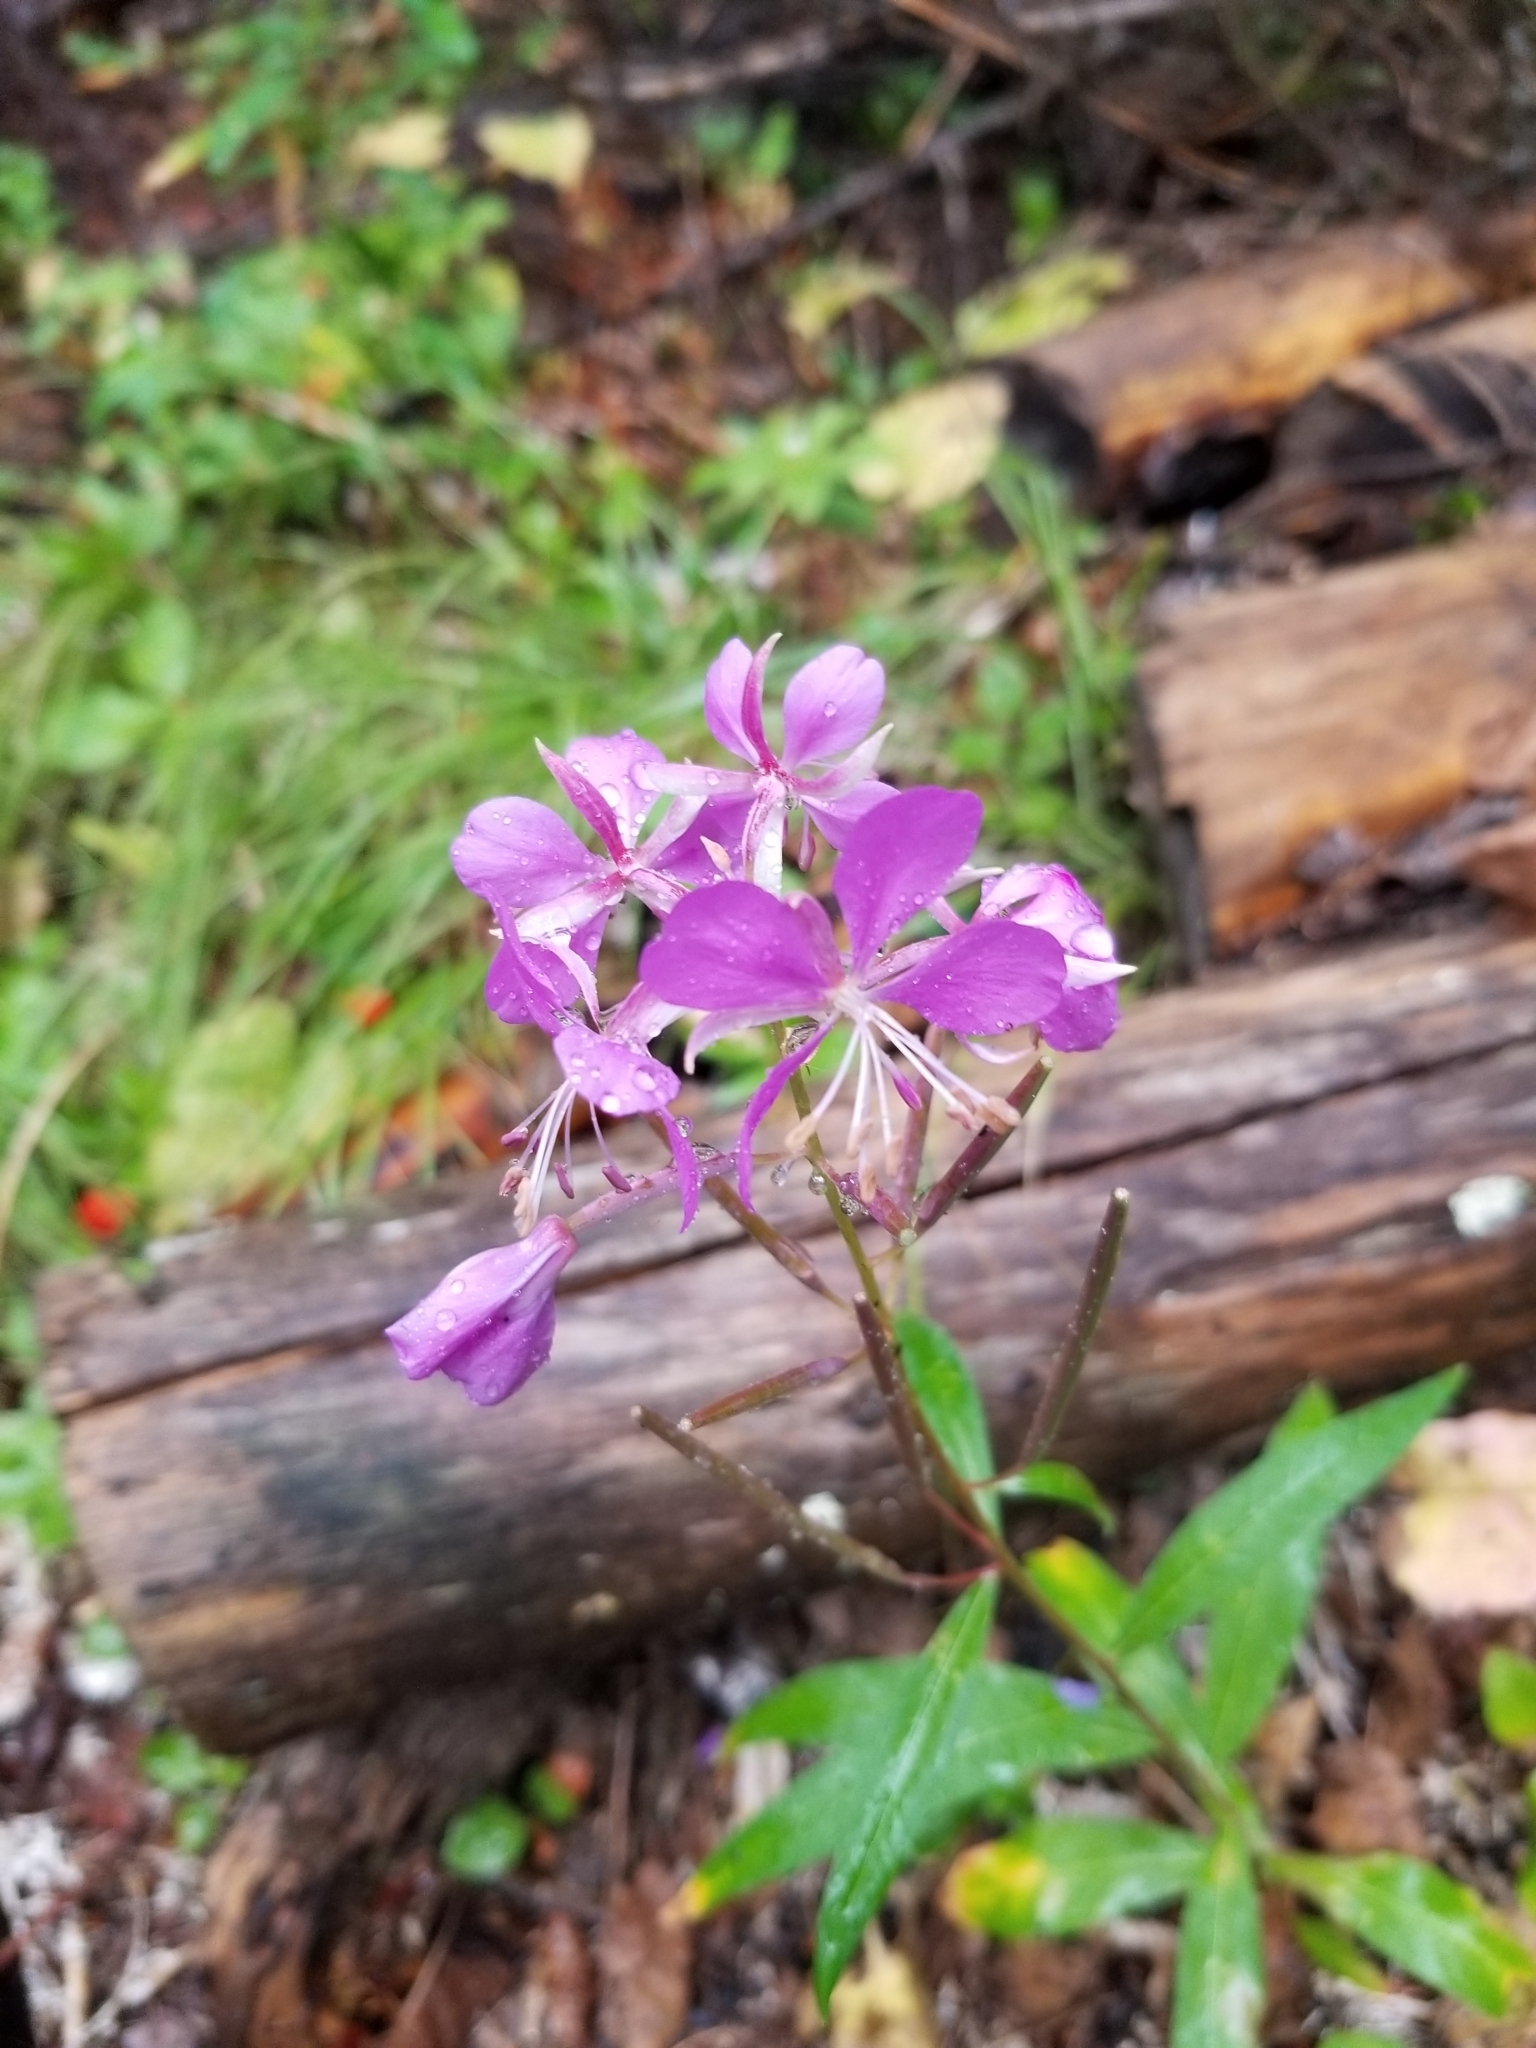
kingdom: Plantae
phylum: Tracheophyta
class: Magnoliopsida
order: Myrtales
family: Onagraceae
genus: Chamaenerion
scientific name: Chamaenerion angustifolium
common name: Fireweed
